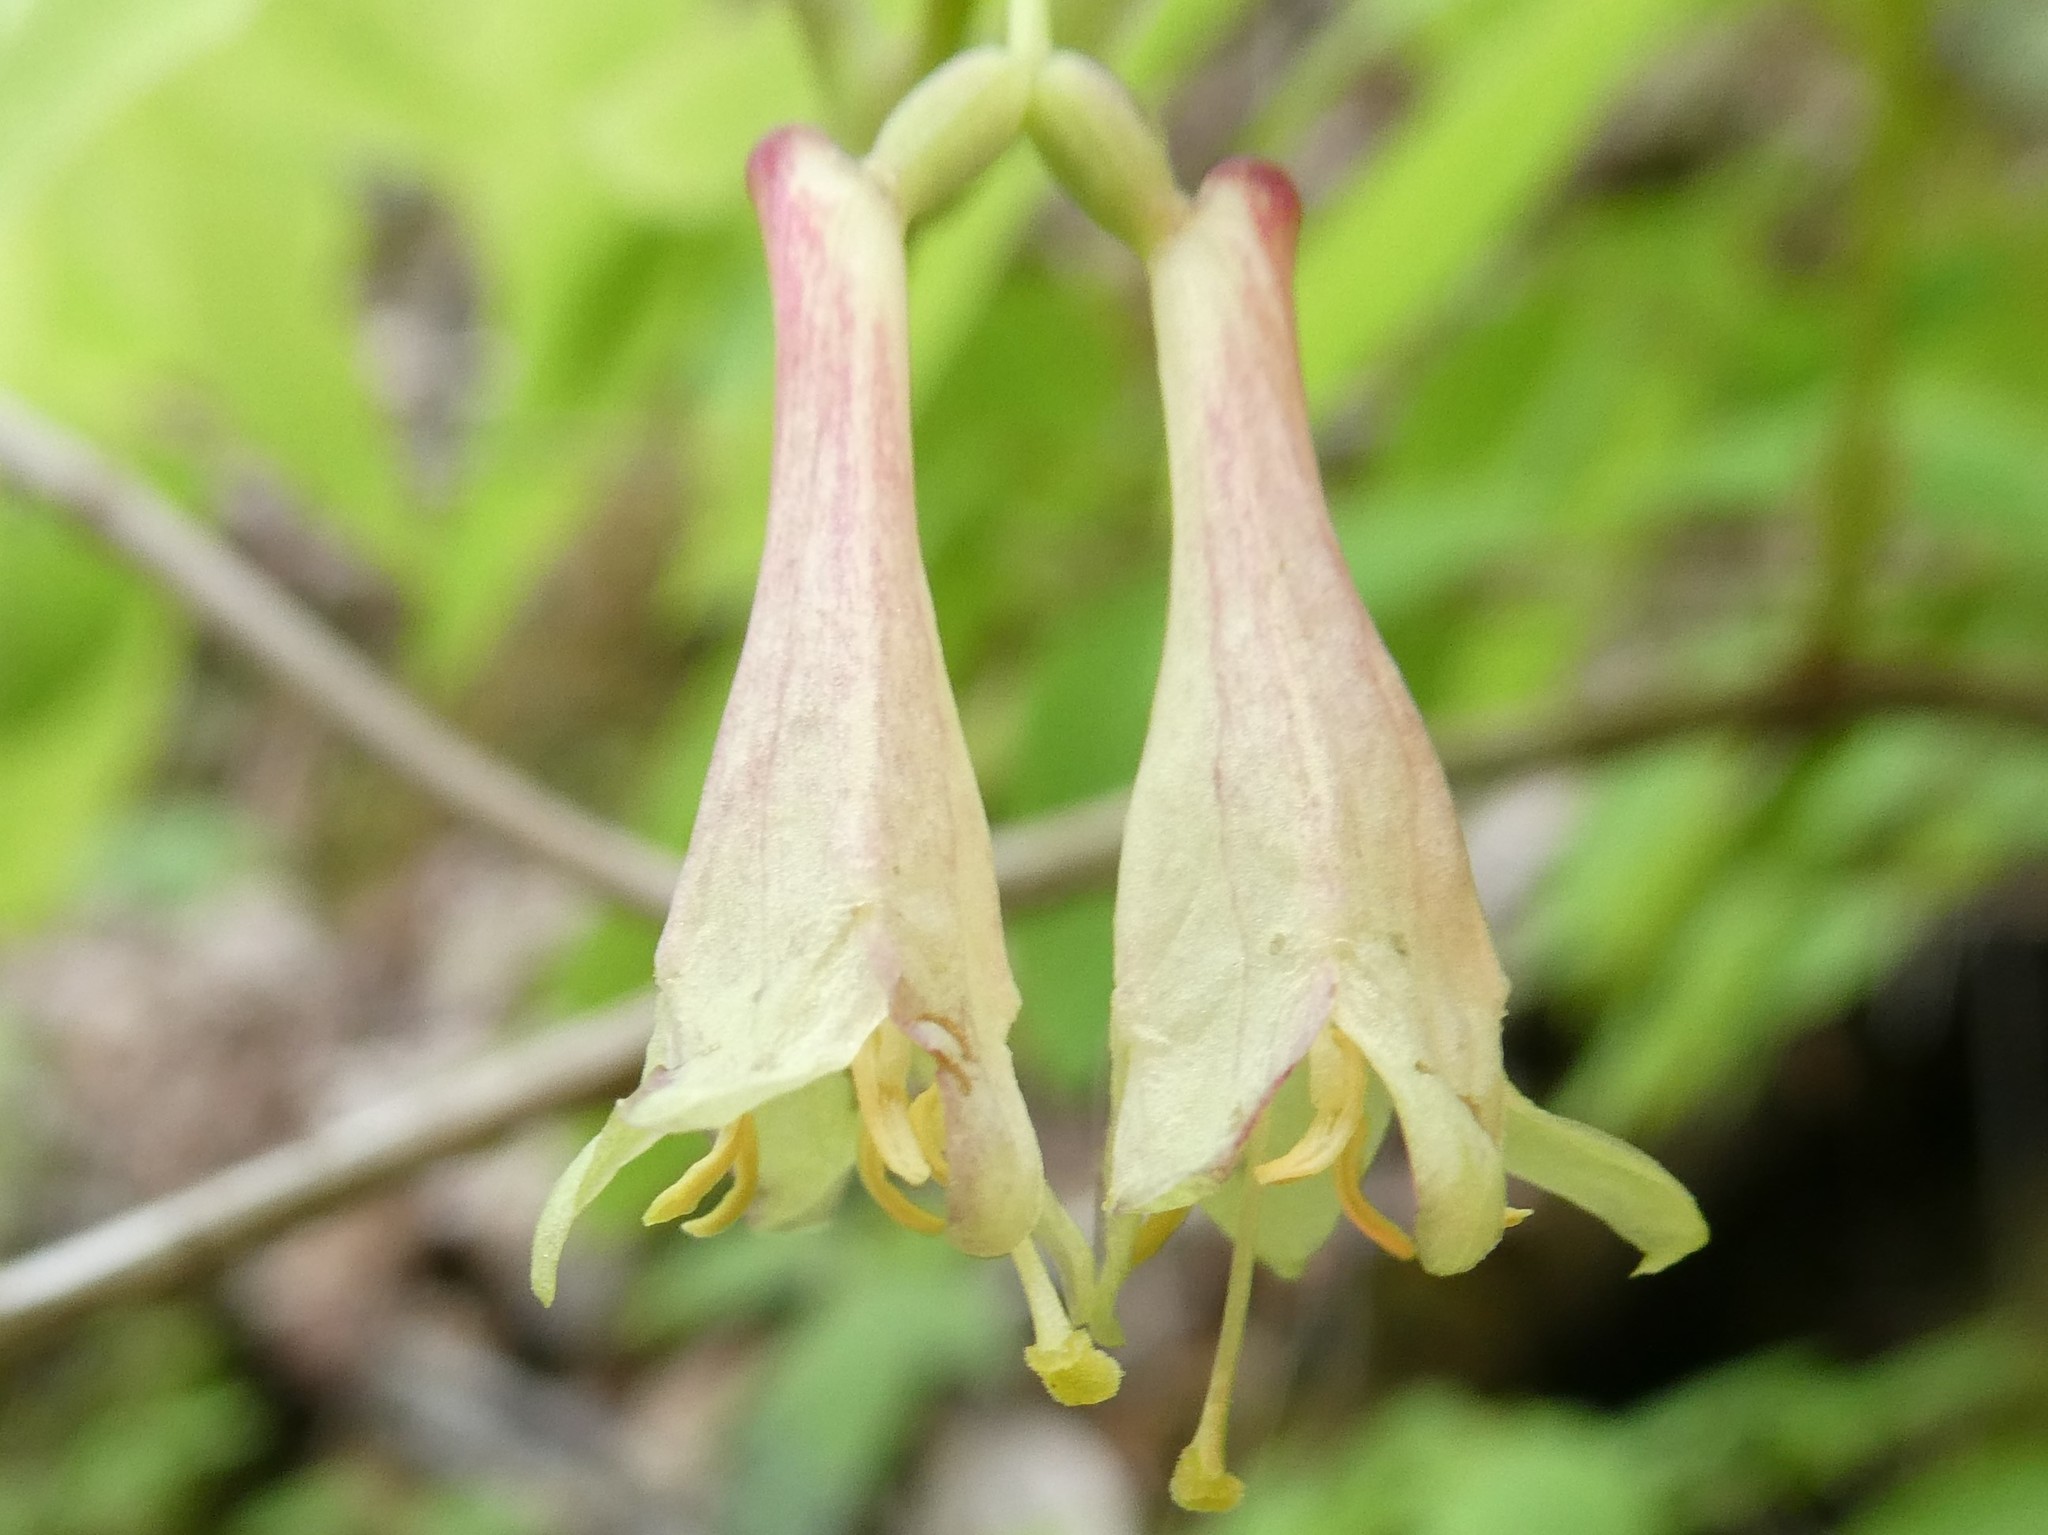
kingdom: Plantae
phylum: Tracheophyta
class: Magnoliopsida
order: Dipsacales
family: Caprifoliaceae
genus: Lonicera
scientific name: Lonicera canadensis
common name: American fly-honeysuckle
